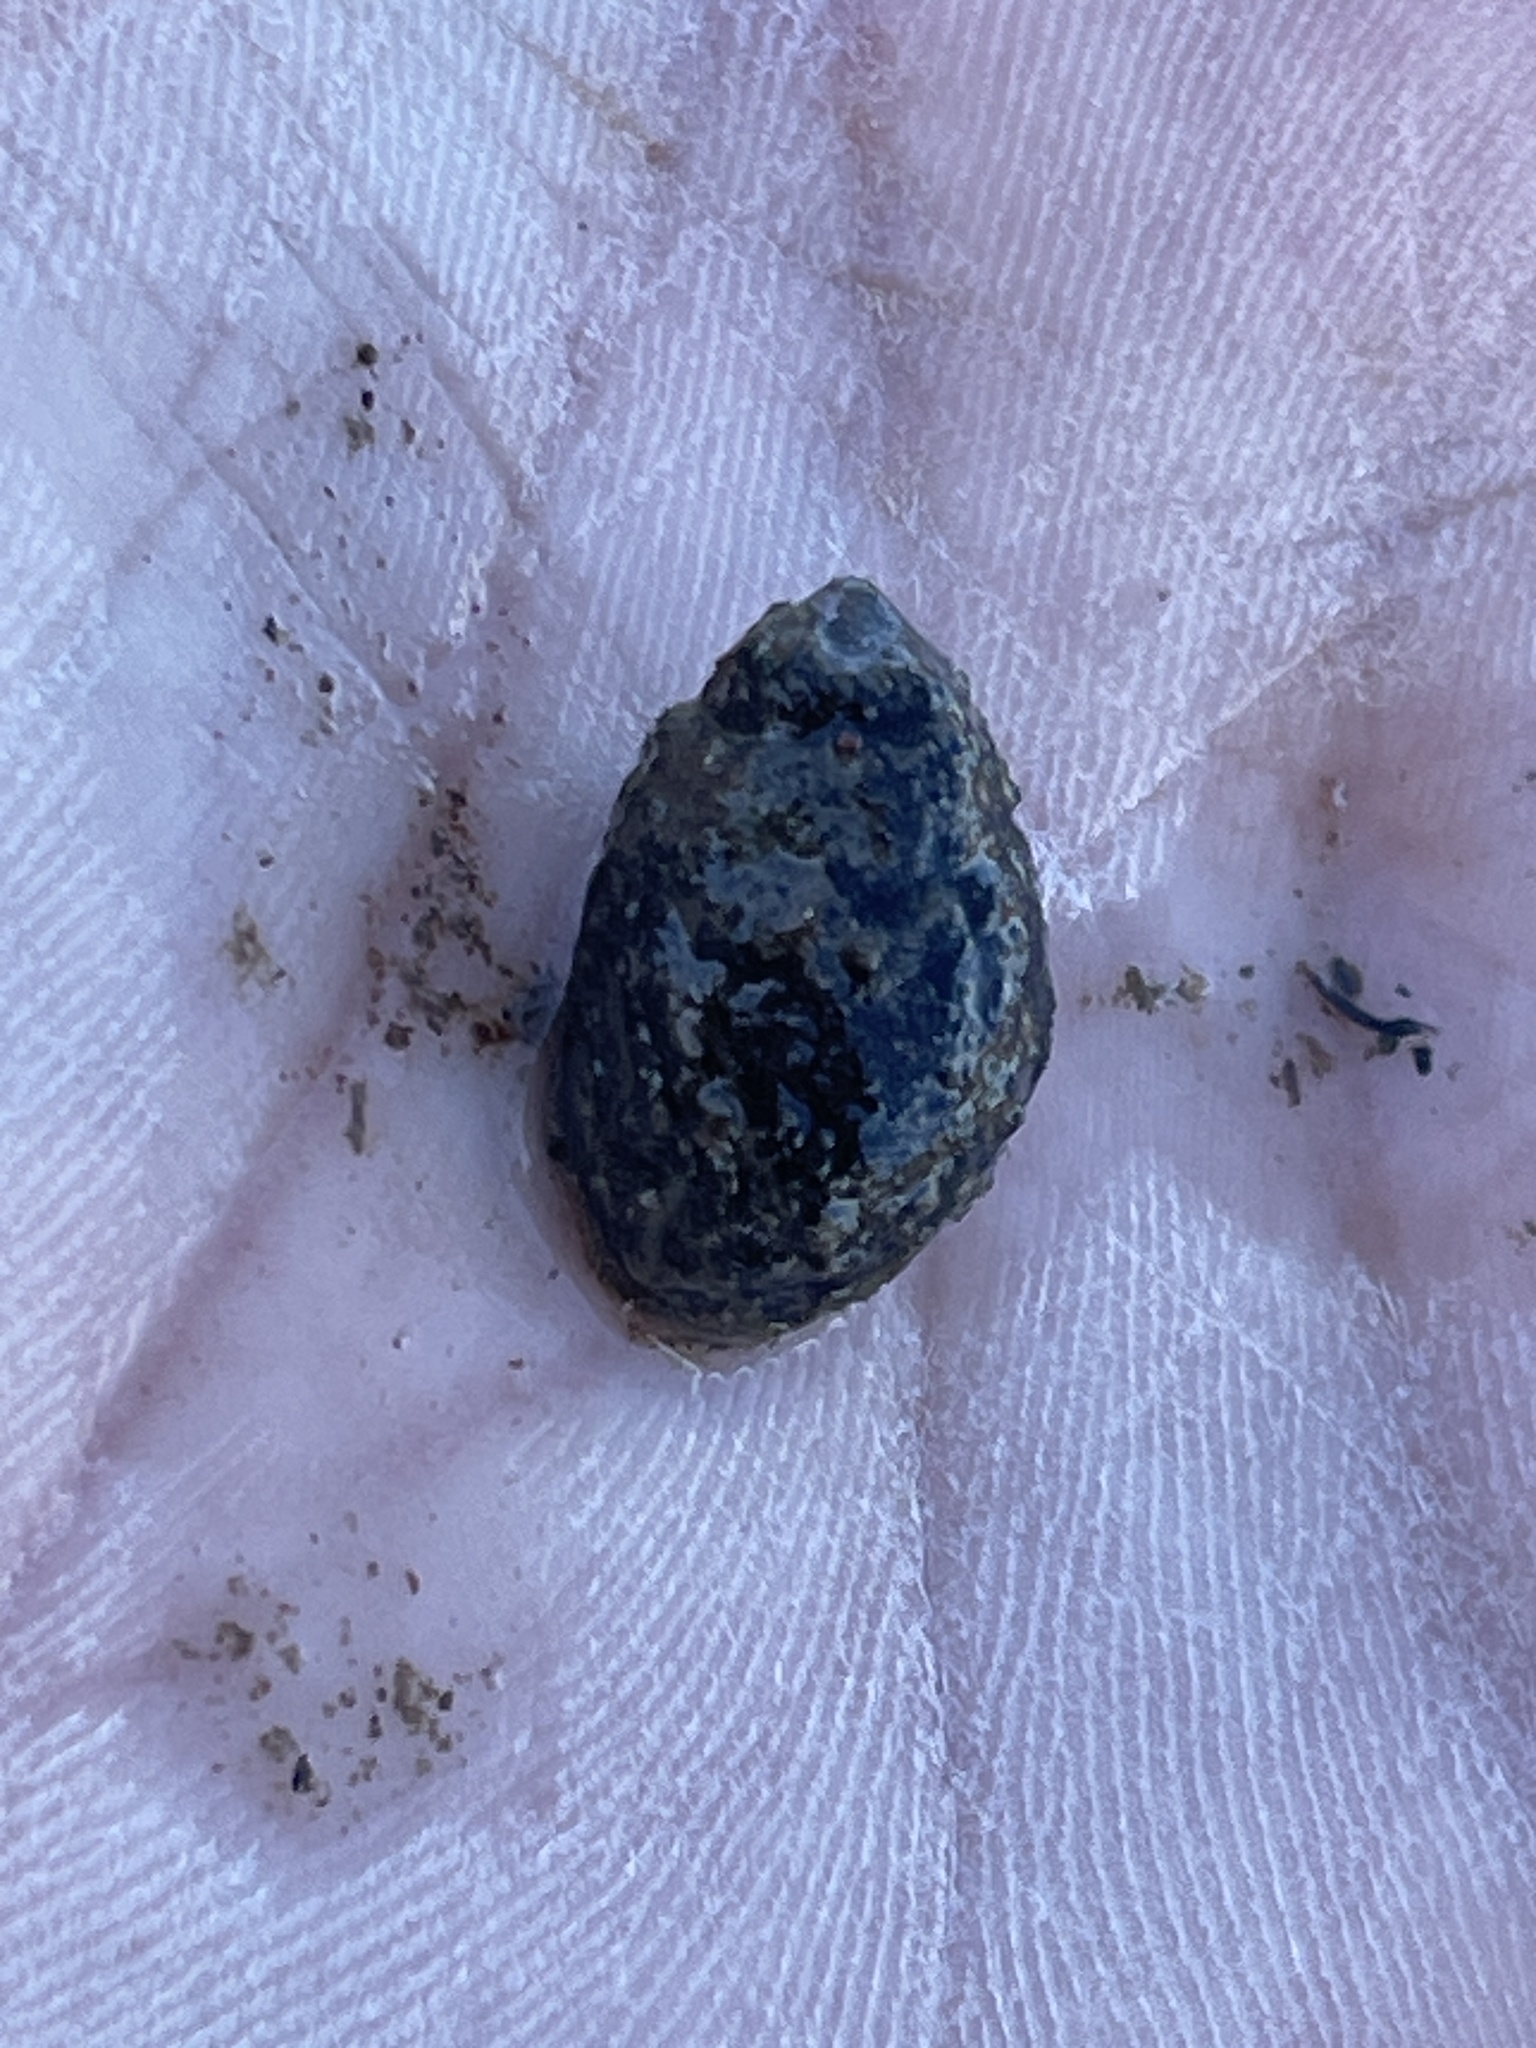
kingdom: Animalia
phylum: Mollusca
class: Gastropoda
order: Neogastropoda
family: Nassariidae
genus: Ilyanassa
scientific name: Ilyanassa obsoleta
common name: Eastern mudsnail
